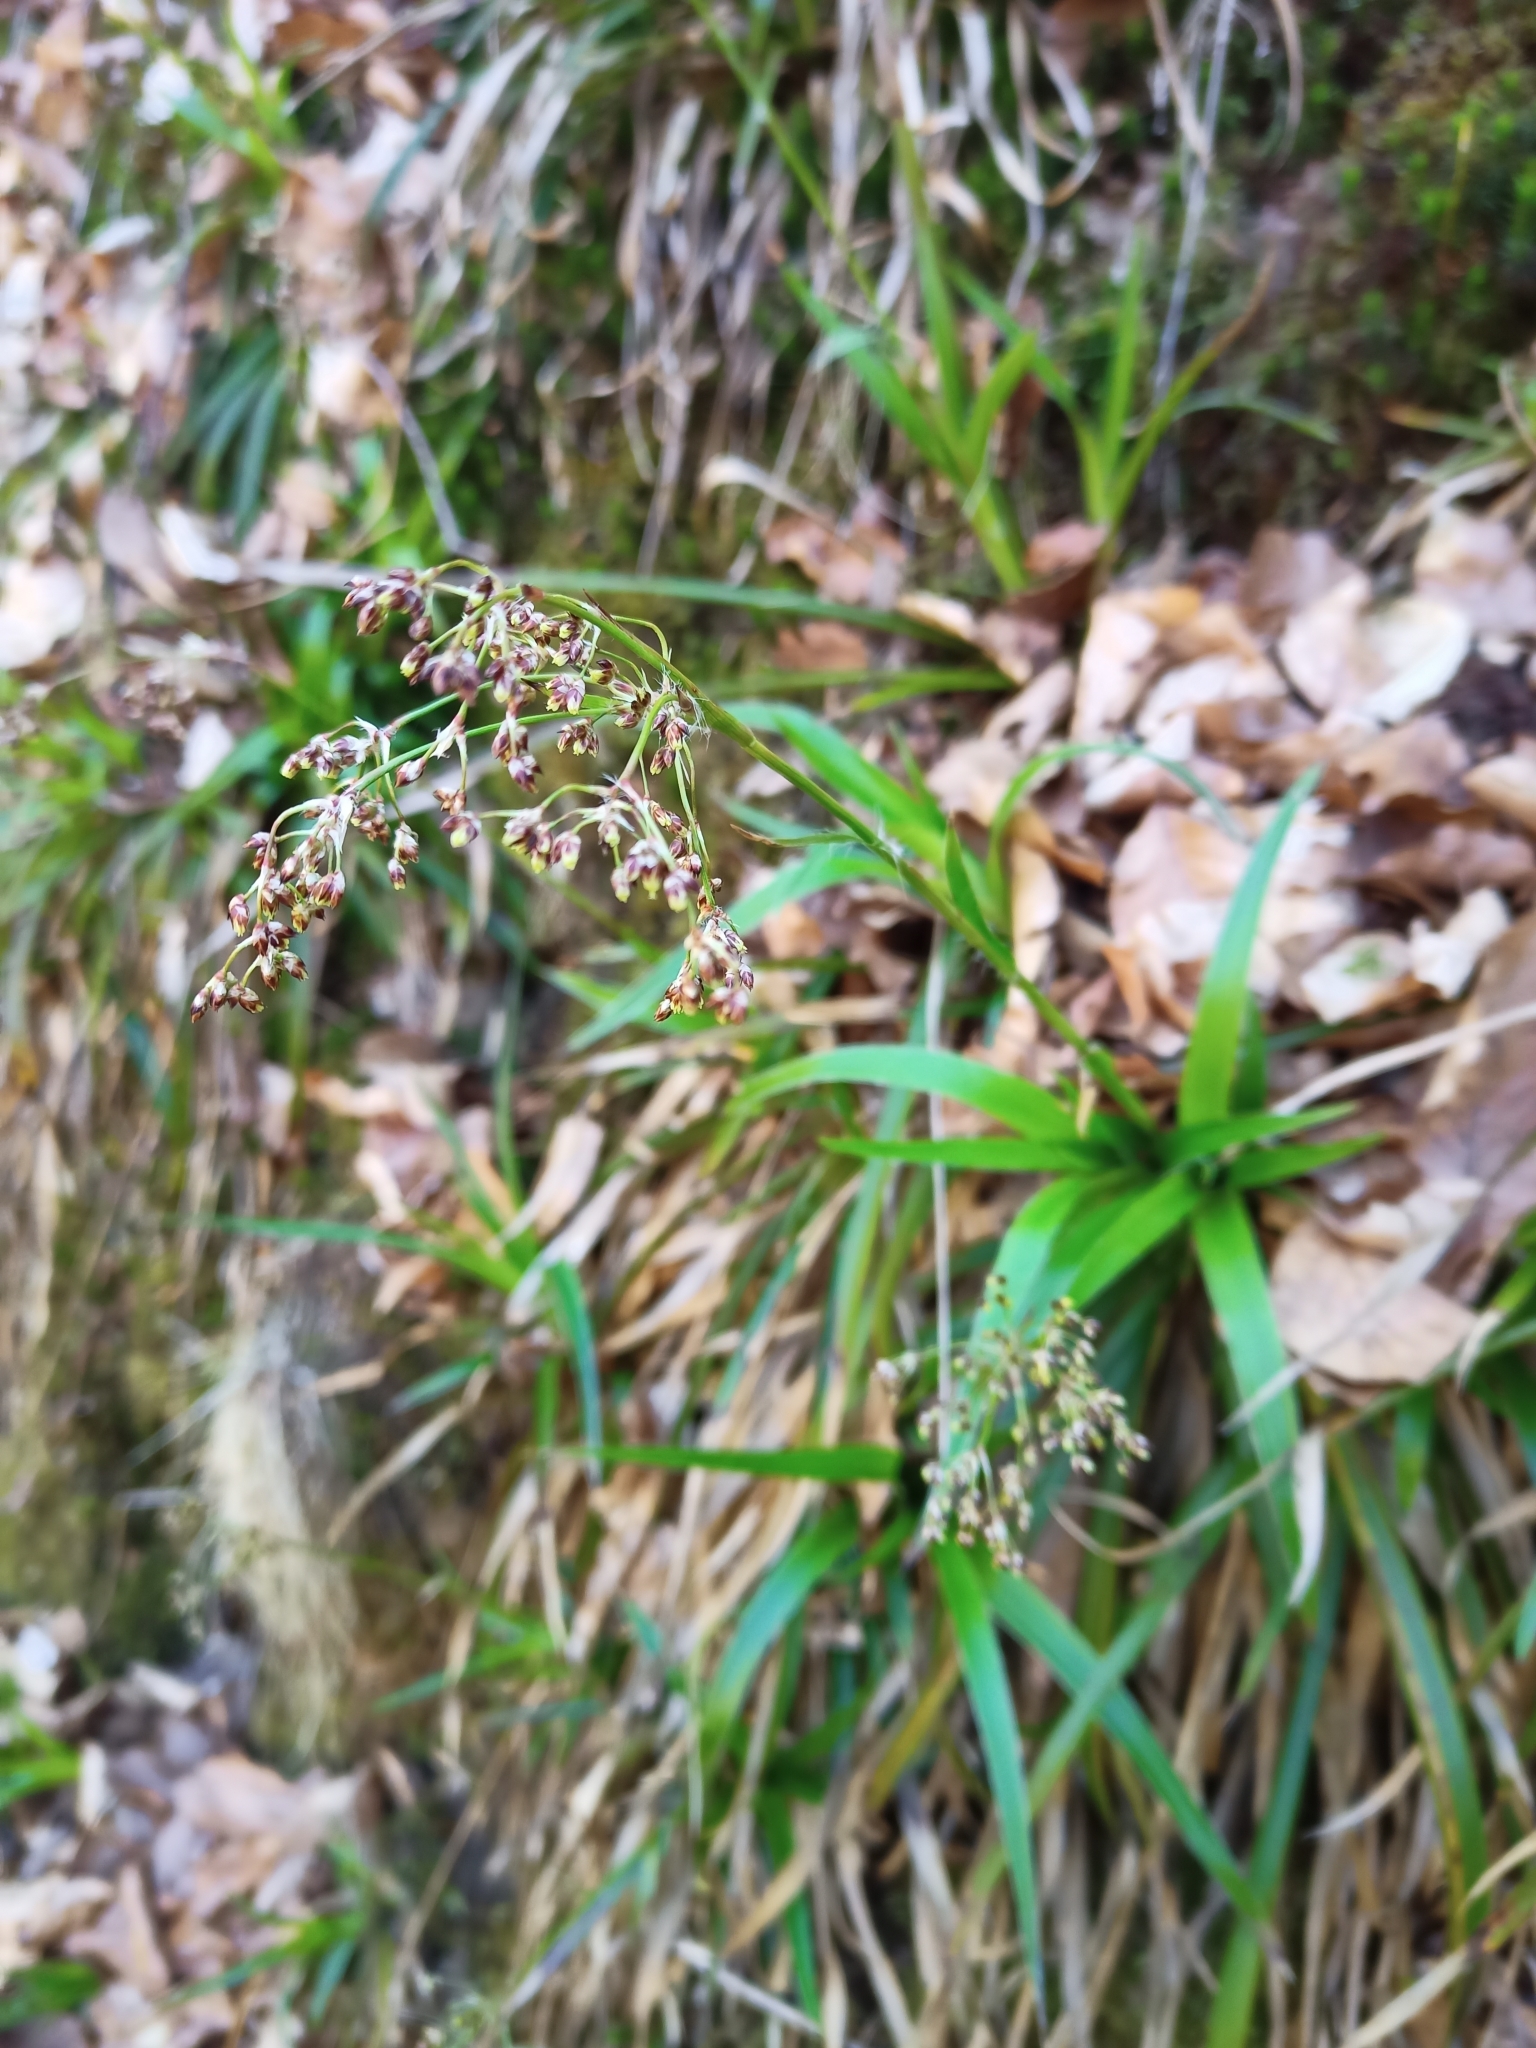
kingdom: Plantae
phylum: Tracheophyta
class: Liliopsida
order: Poales
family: Juncaceae
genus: Luzula
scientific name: Luzula sylvatica
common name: Great wood-rush
